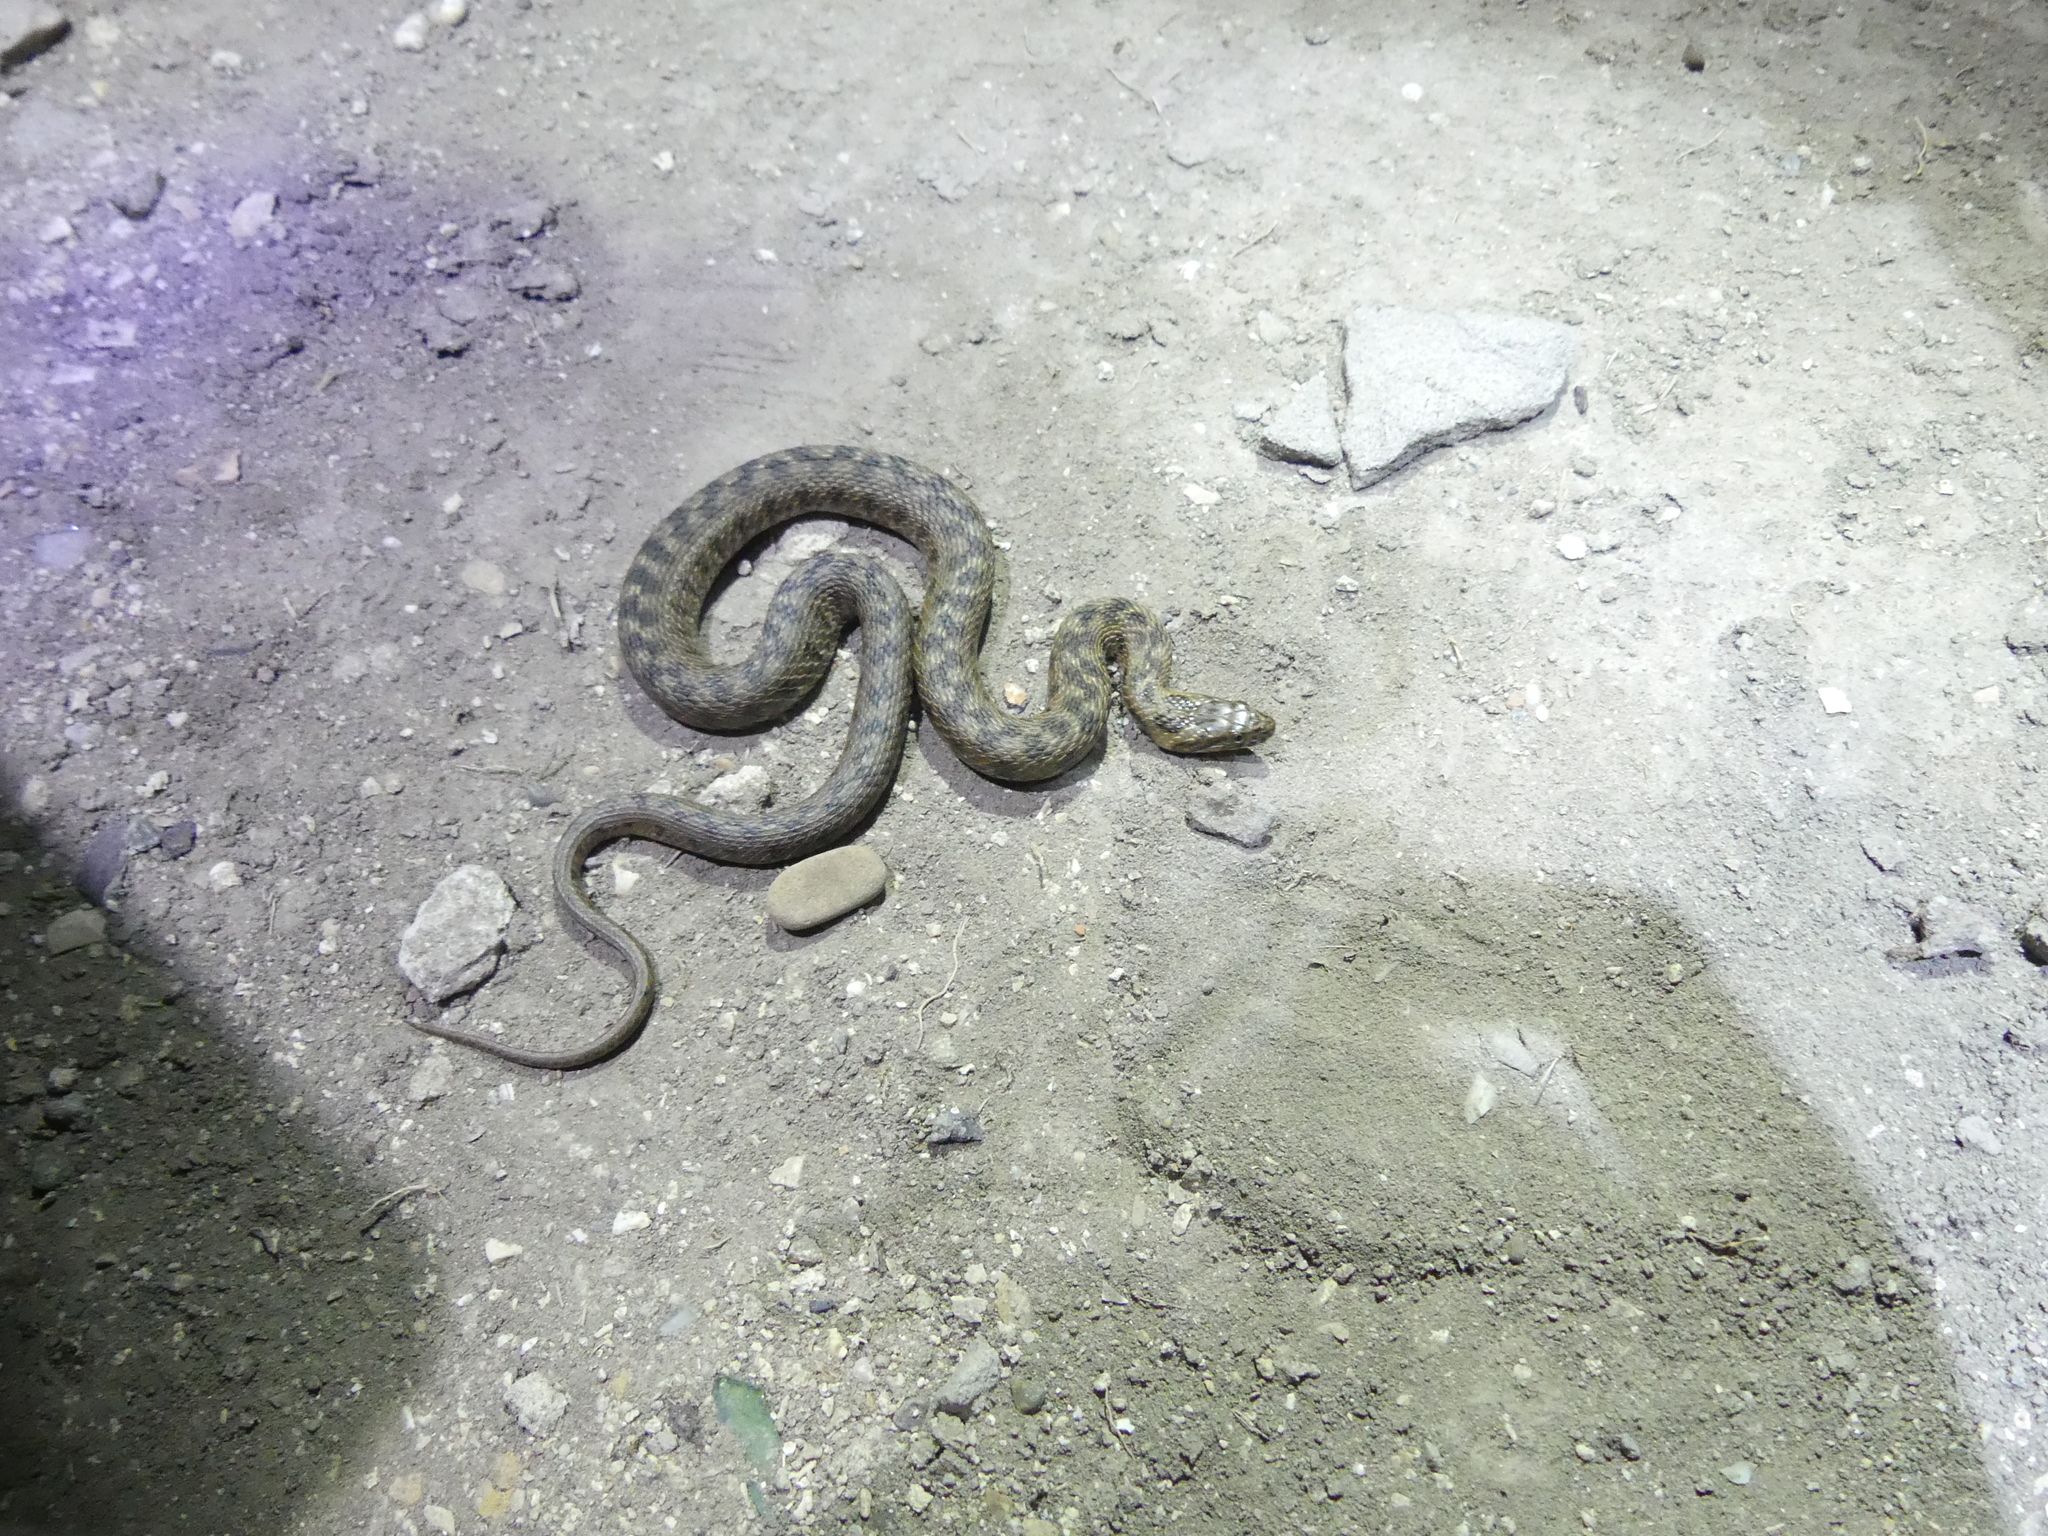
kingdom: Animalia
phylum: Chordata
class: Squamata
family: Colubridae
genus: Natrix
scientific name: Natrix maura
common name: Viperine water snake
